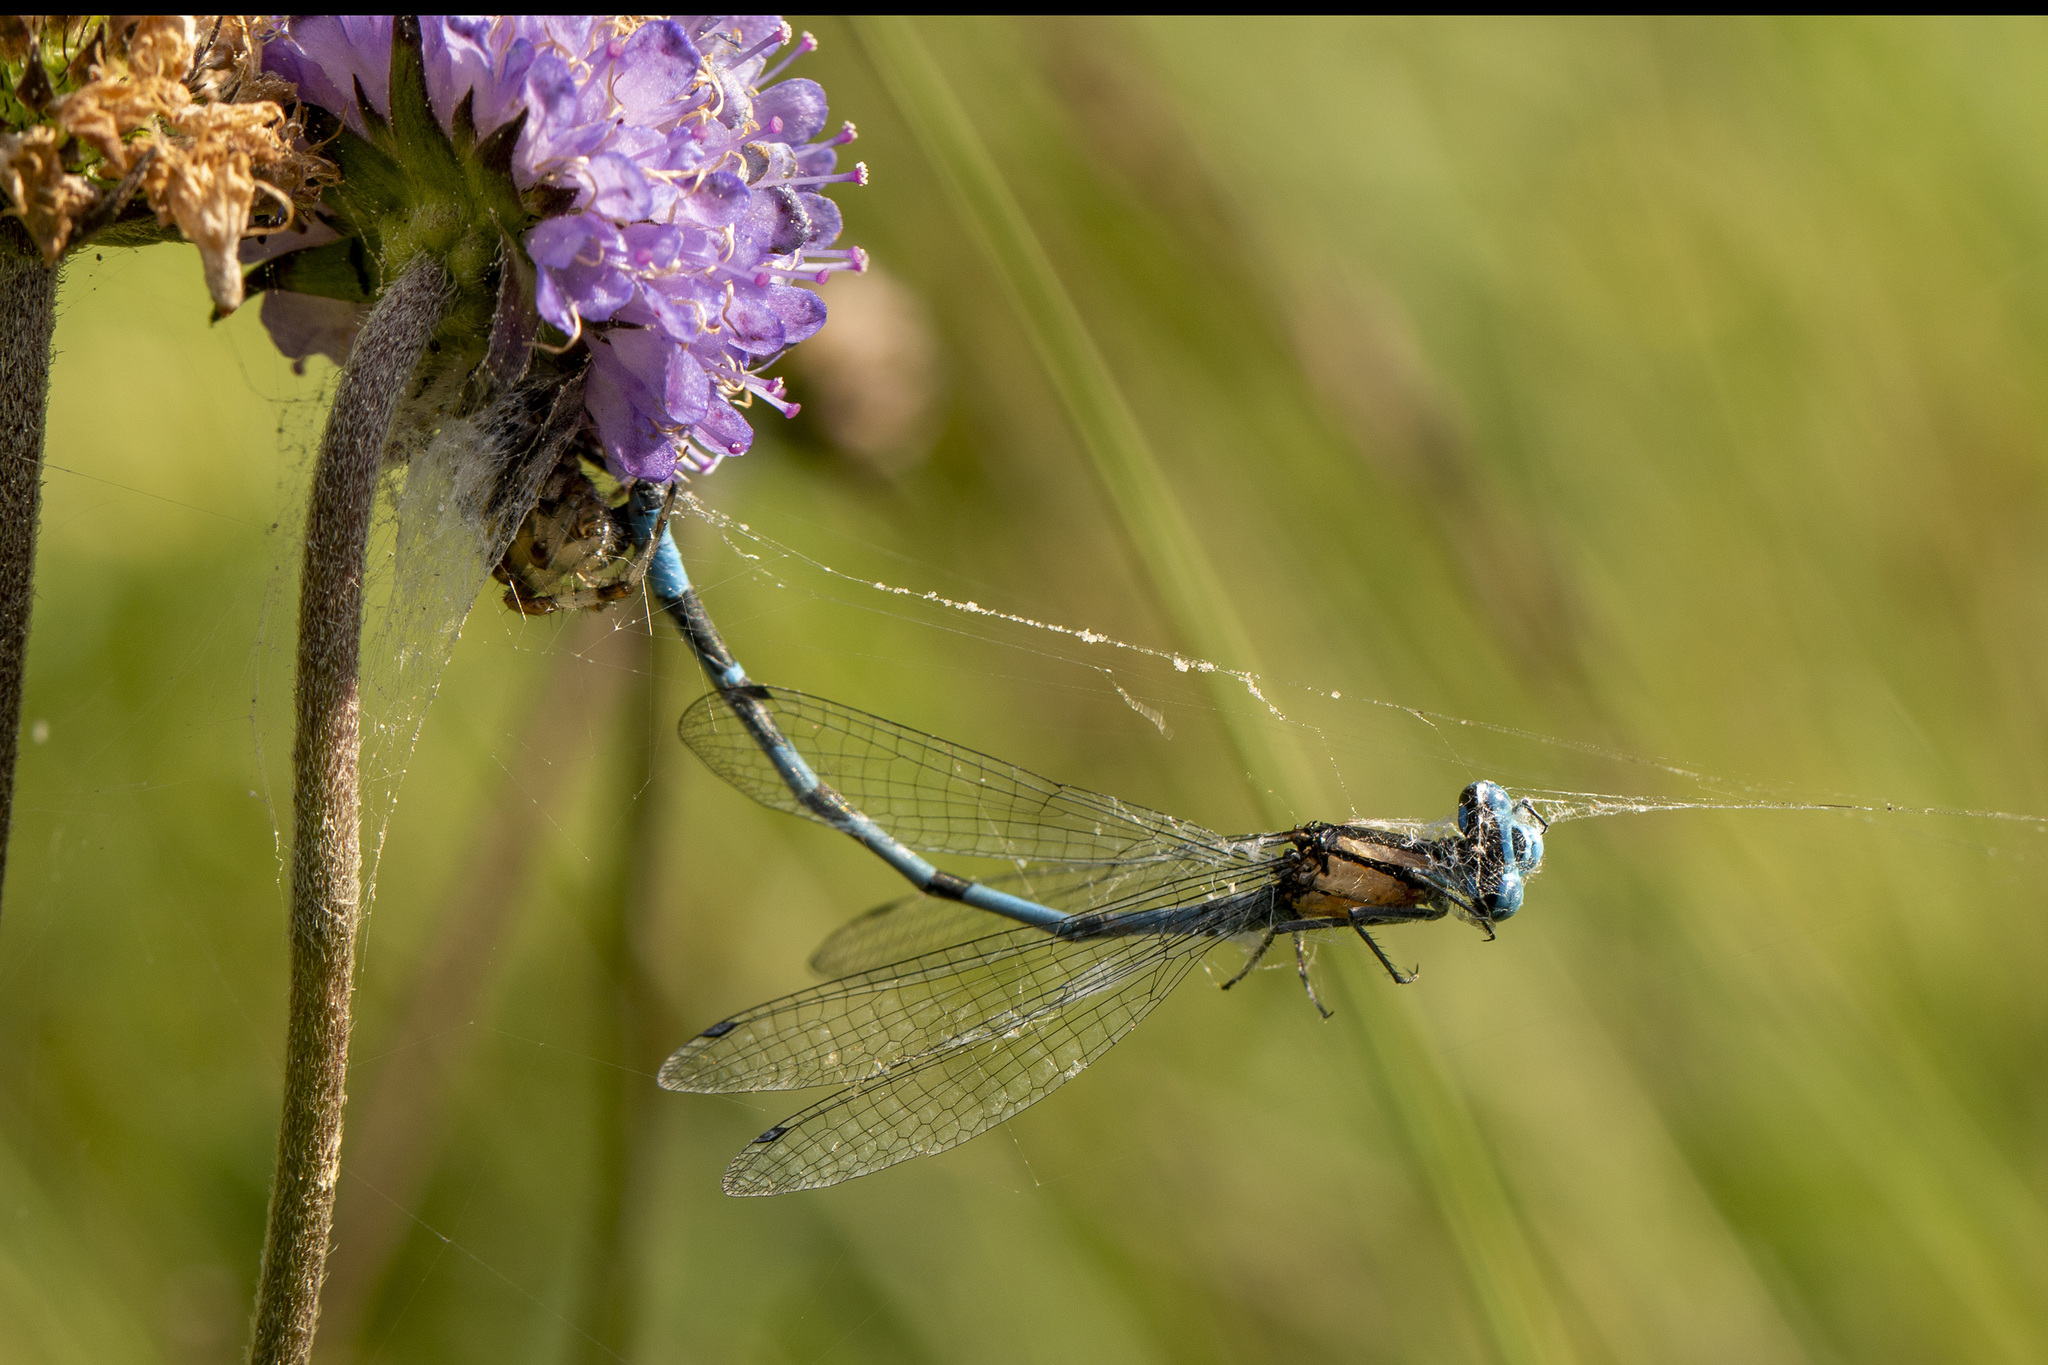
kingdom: Animalia
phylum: Arthropoda
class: Insecta
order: Odonata
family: Coenagrionidae
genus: Enallagma
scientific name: Enallagma cyathigerum
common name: Common blue damselfly
